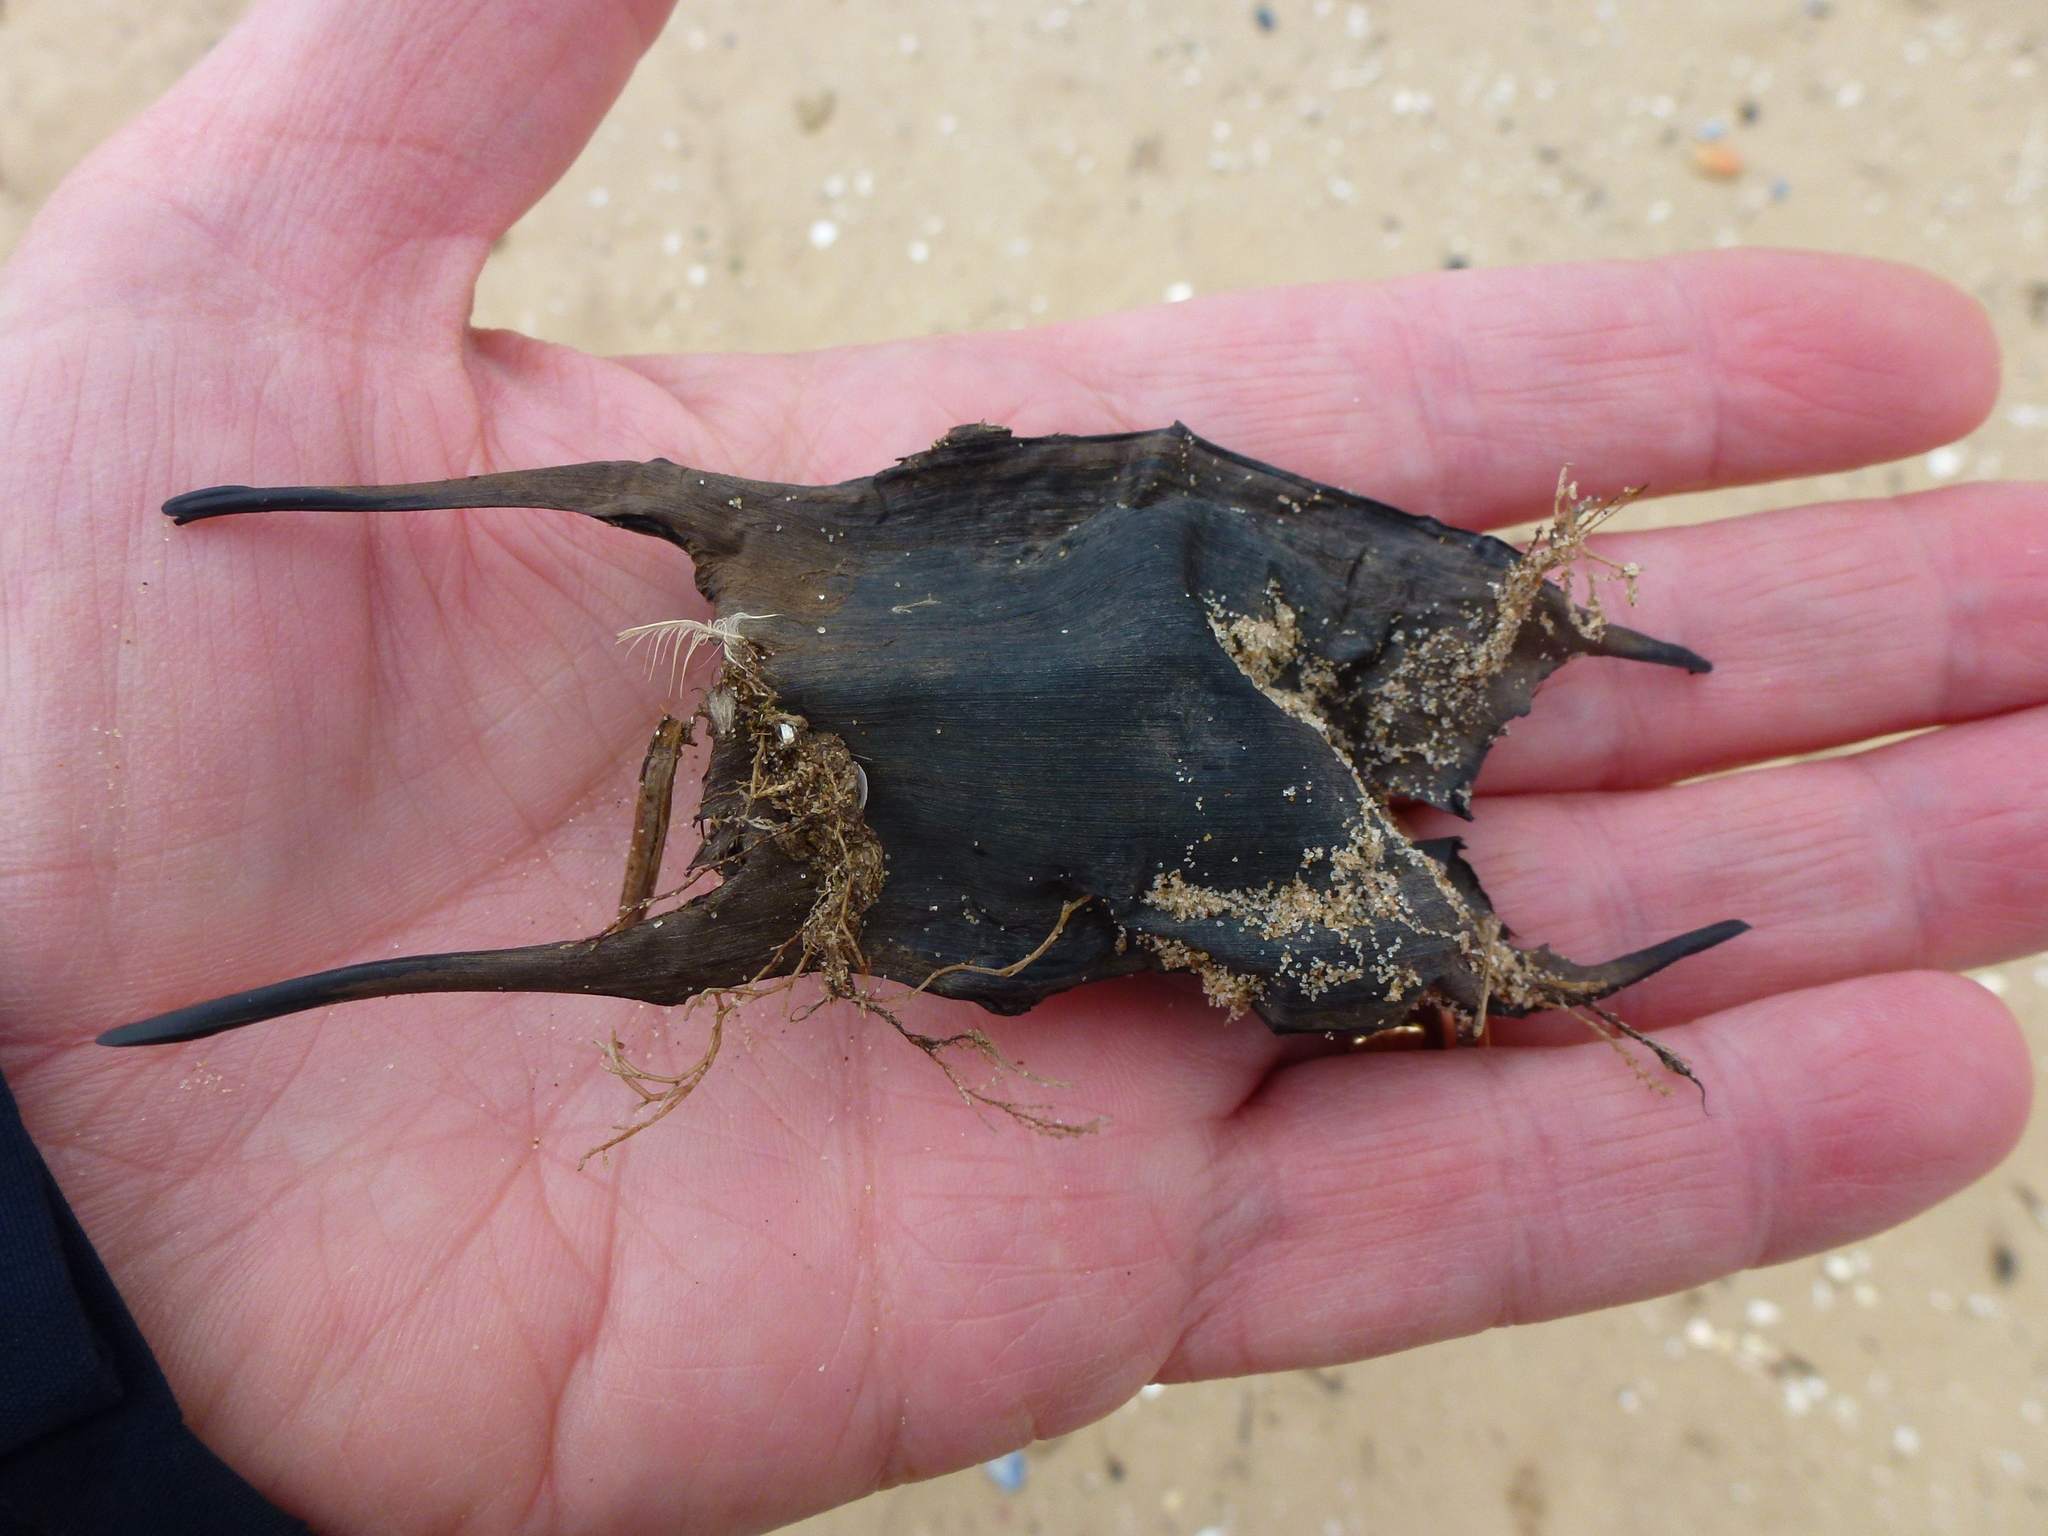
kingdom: Animalia
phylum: Chordata
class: Elasmobranchii
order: Rajiformes
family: Rajidae
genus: Raja
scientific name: Raja clavata
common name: Thornback ray
